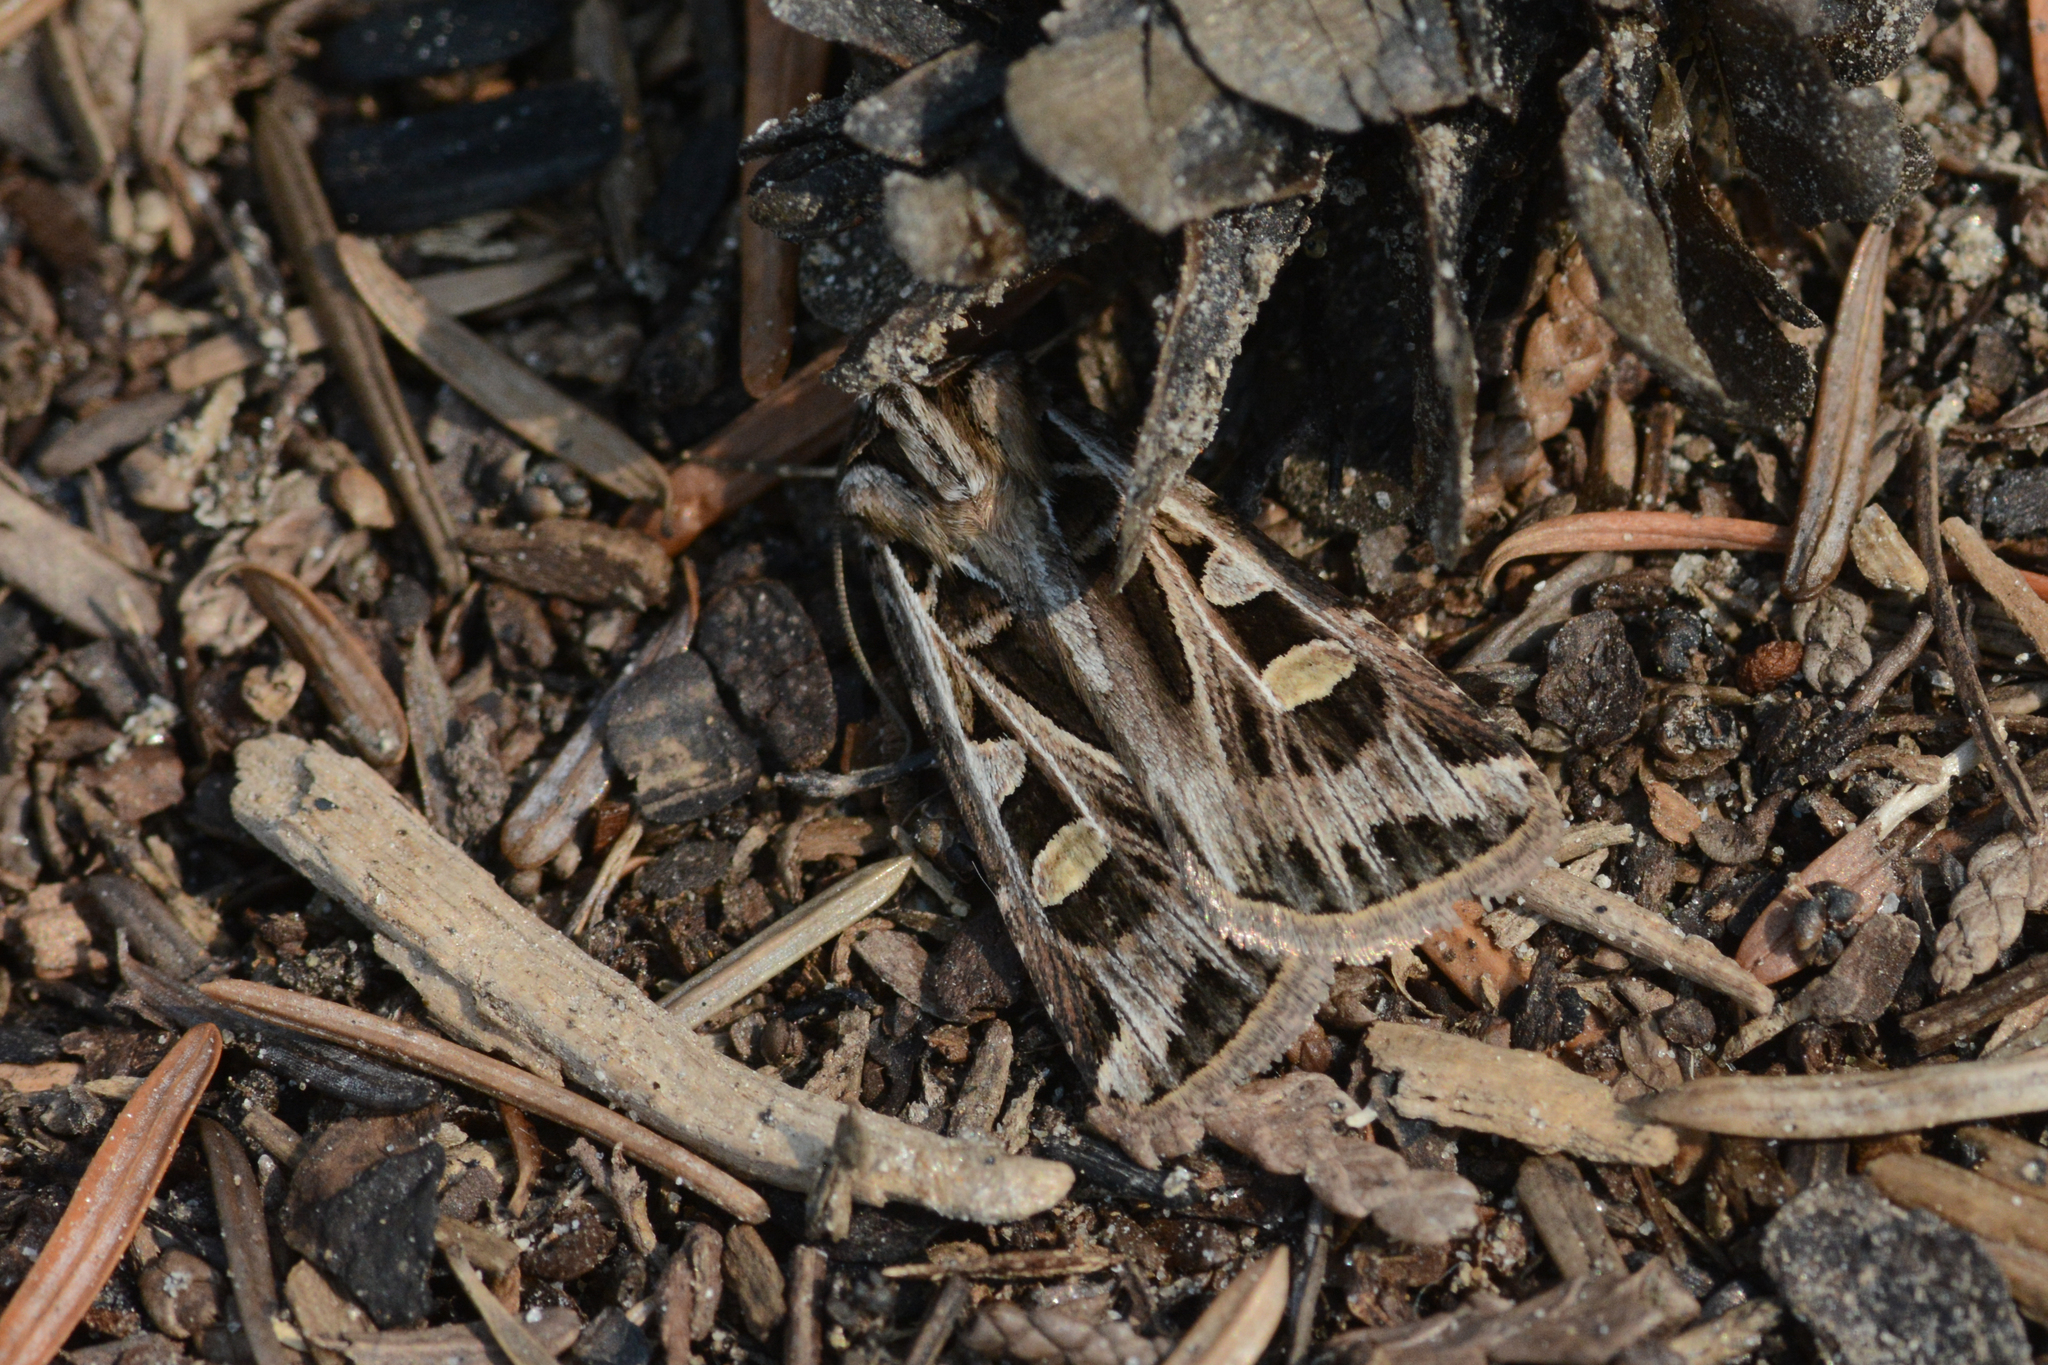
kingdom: Animalia
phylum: Arthropoda
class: Insecta
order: Lepidoptera
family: Noctuidae
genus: Feltia
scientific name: Feltia jaculifera
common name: Dingy cutworm moth
